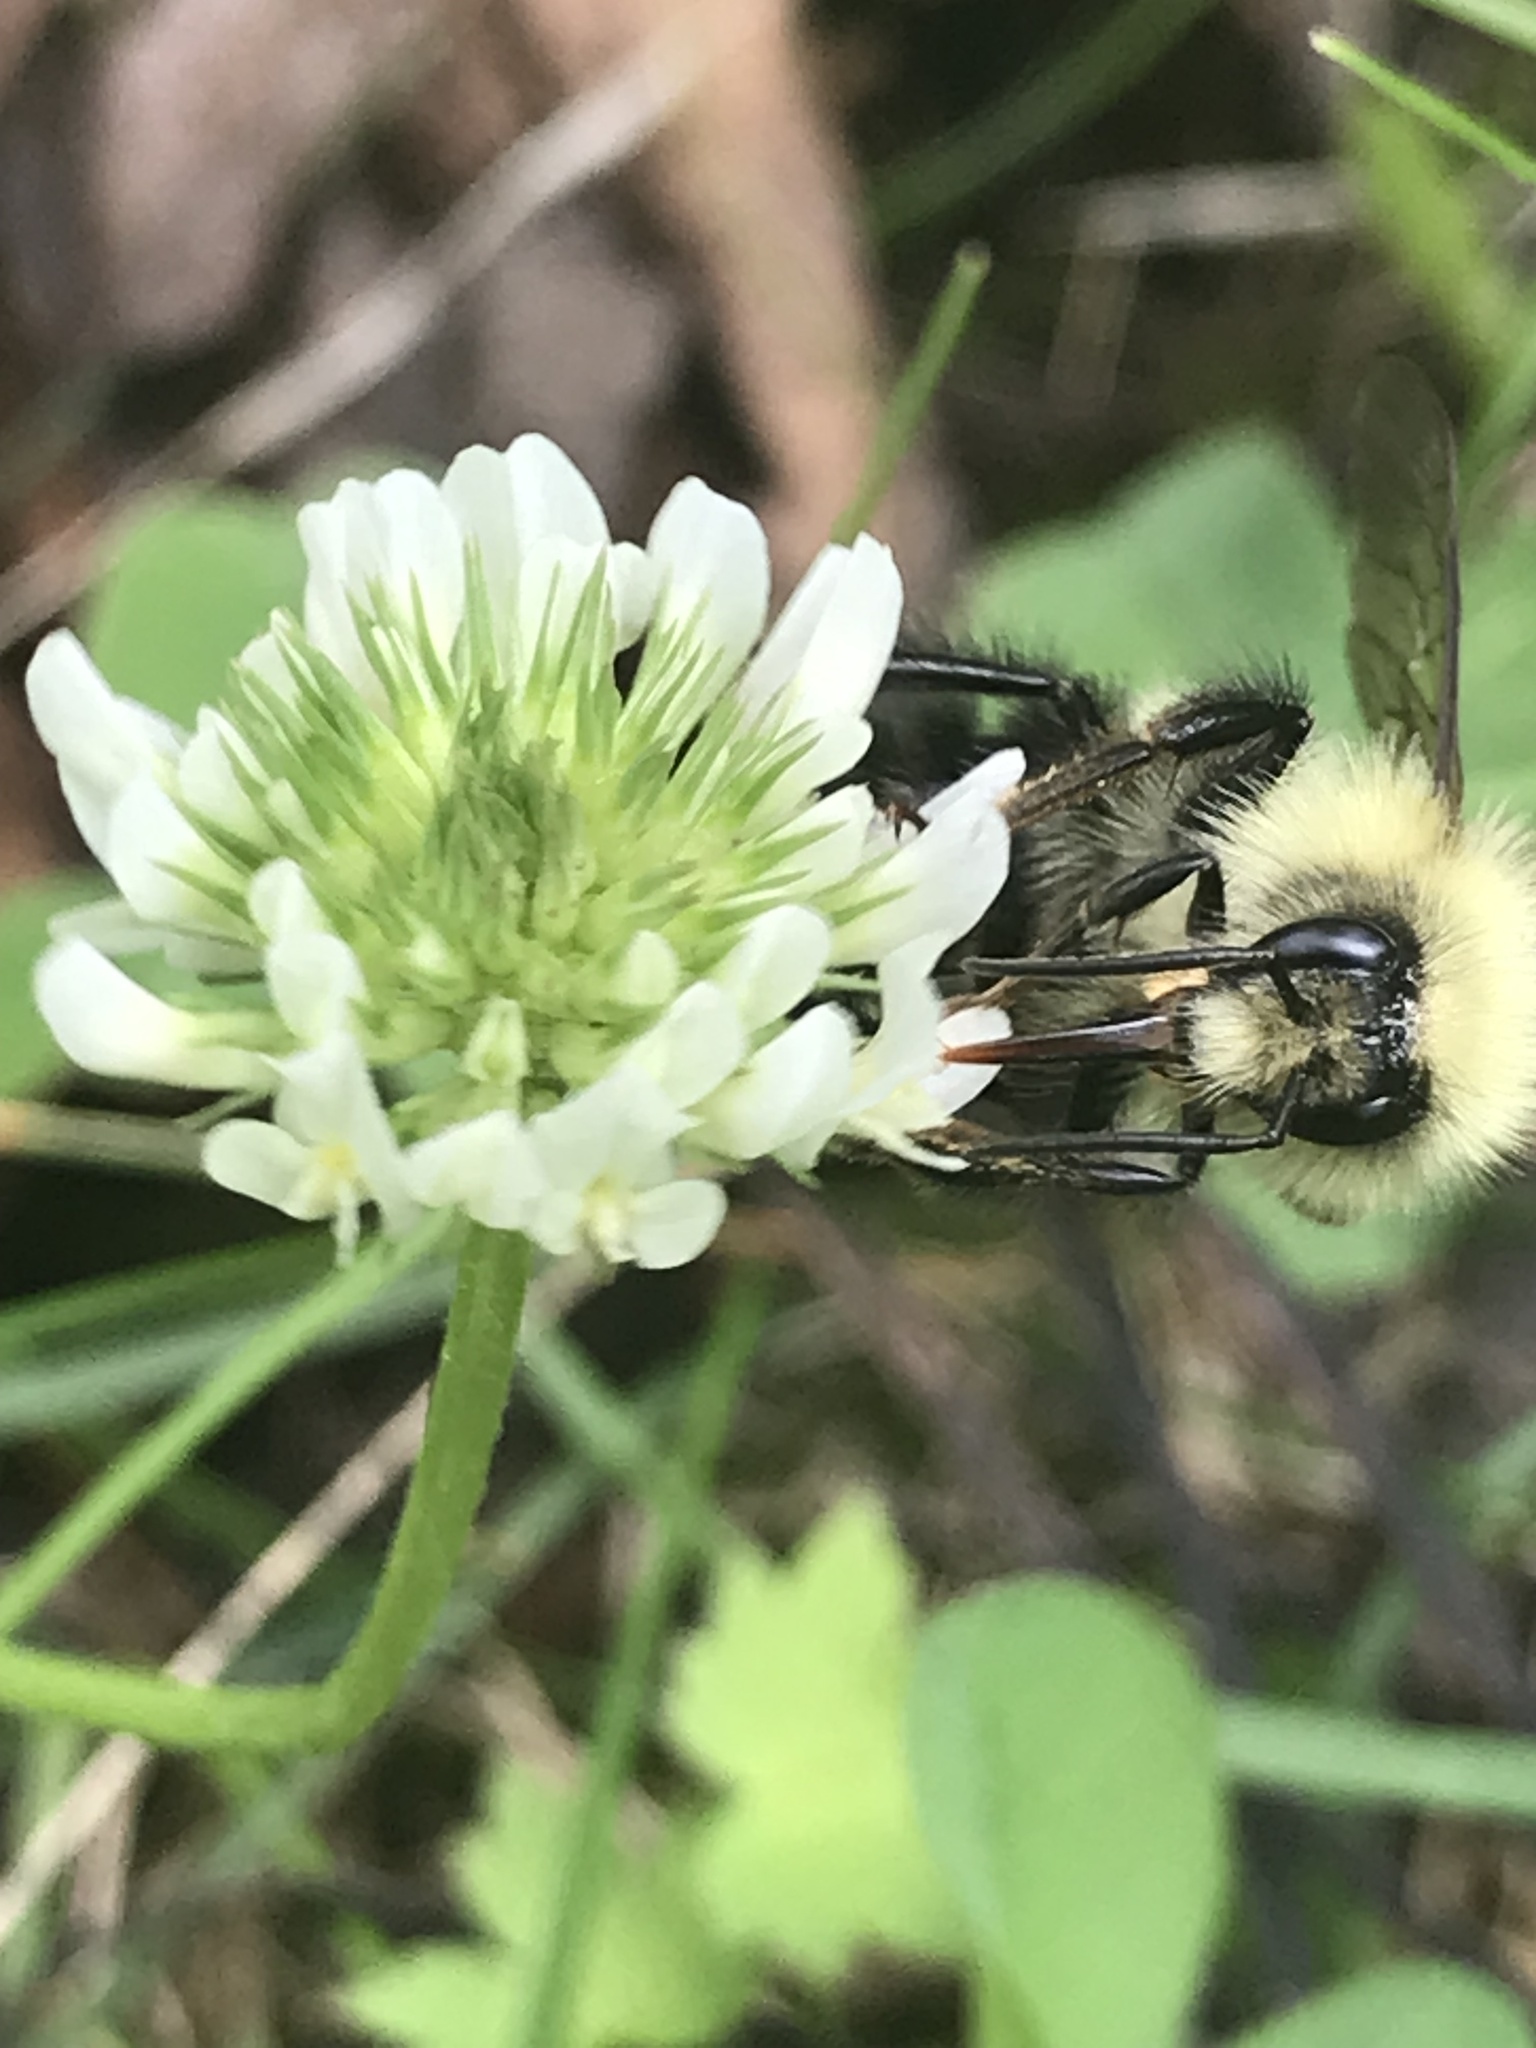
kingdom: Animalia
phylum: Arthropoda
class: Insecta
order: Hymenoptera
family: Apidae
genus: Pyrobombus
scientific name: Pyrobombus
